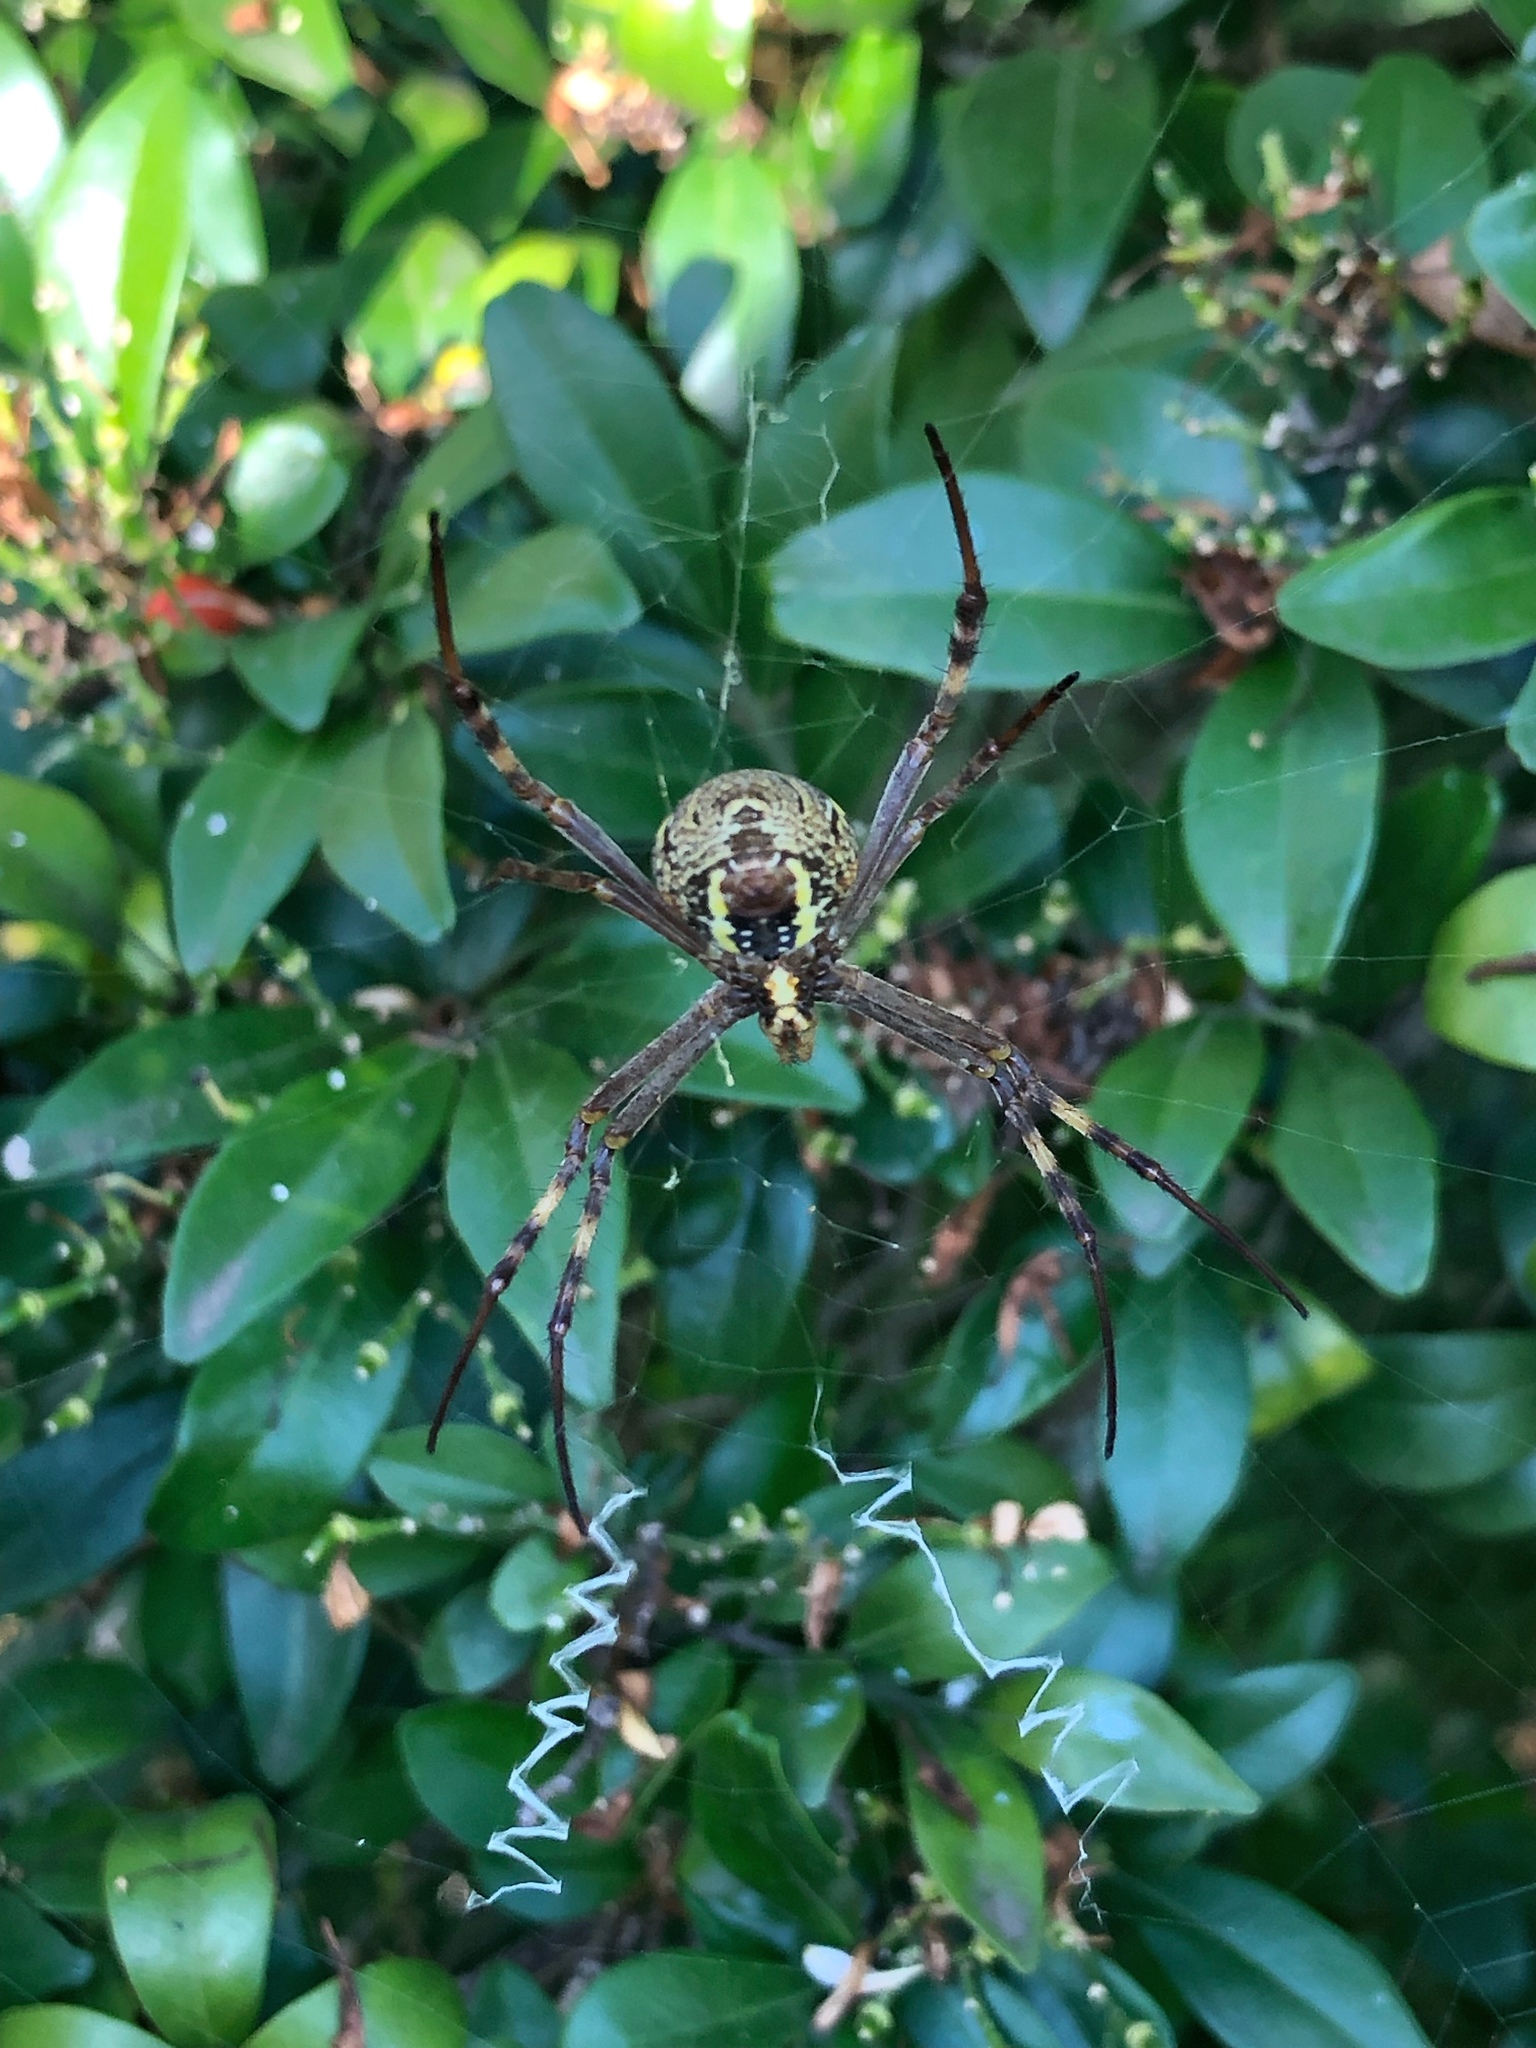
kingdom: Animalia
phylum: Arthropoda
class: Arachnida
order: Araneae
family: Araneidae
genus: Argiope
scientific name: Argiope keyserlingi
